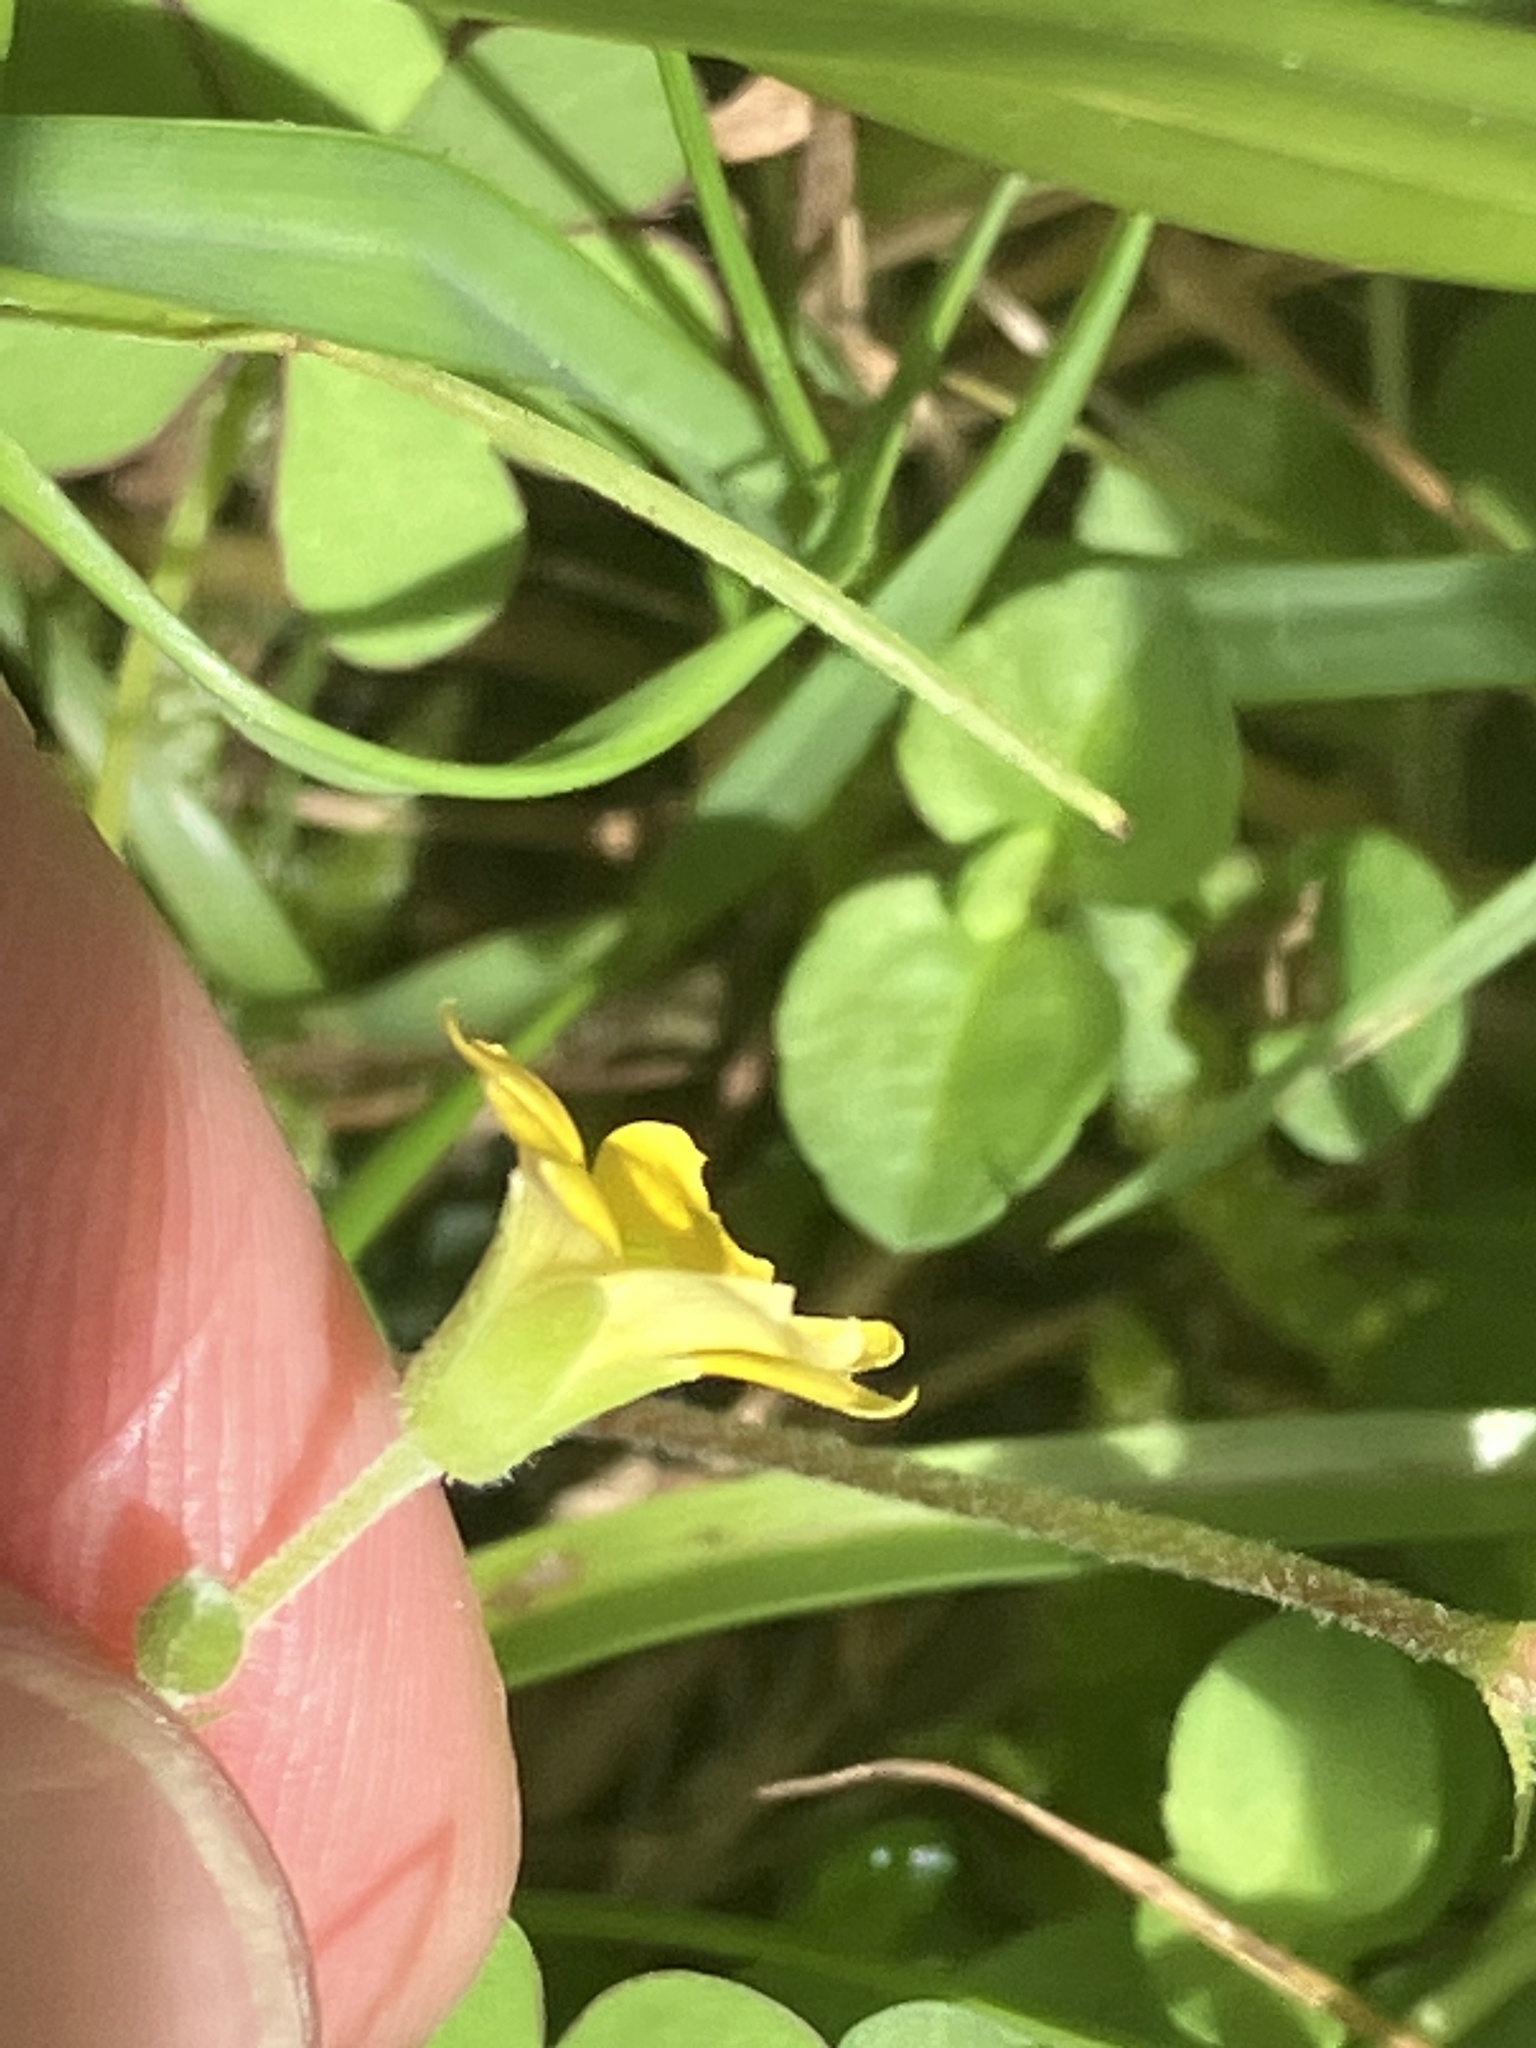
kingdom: Plantae
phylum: Tracheophyta
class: Magnoliopsida
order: Oxalidales
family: Oxalidaceae
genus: Oxalis
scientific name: Oxalis corniculata
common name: Procumbent yellow-sorrel
